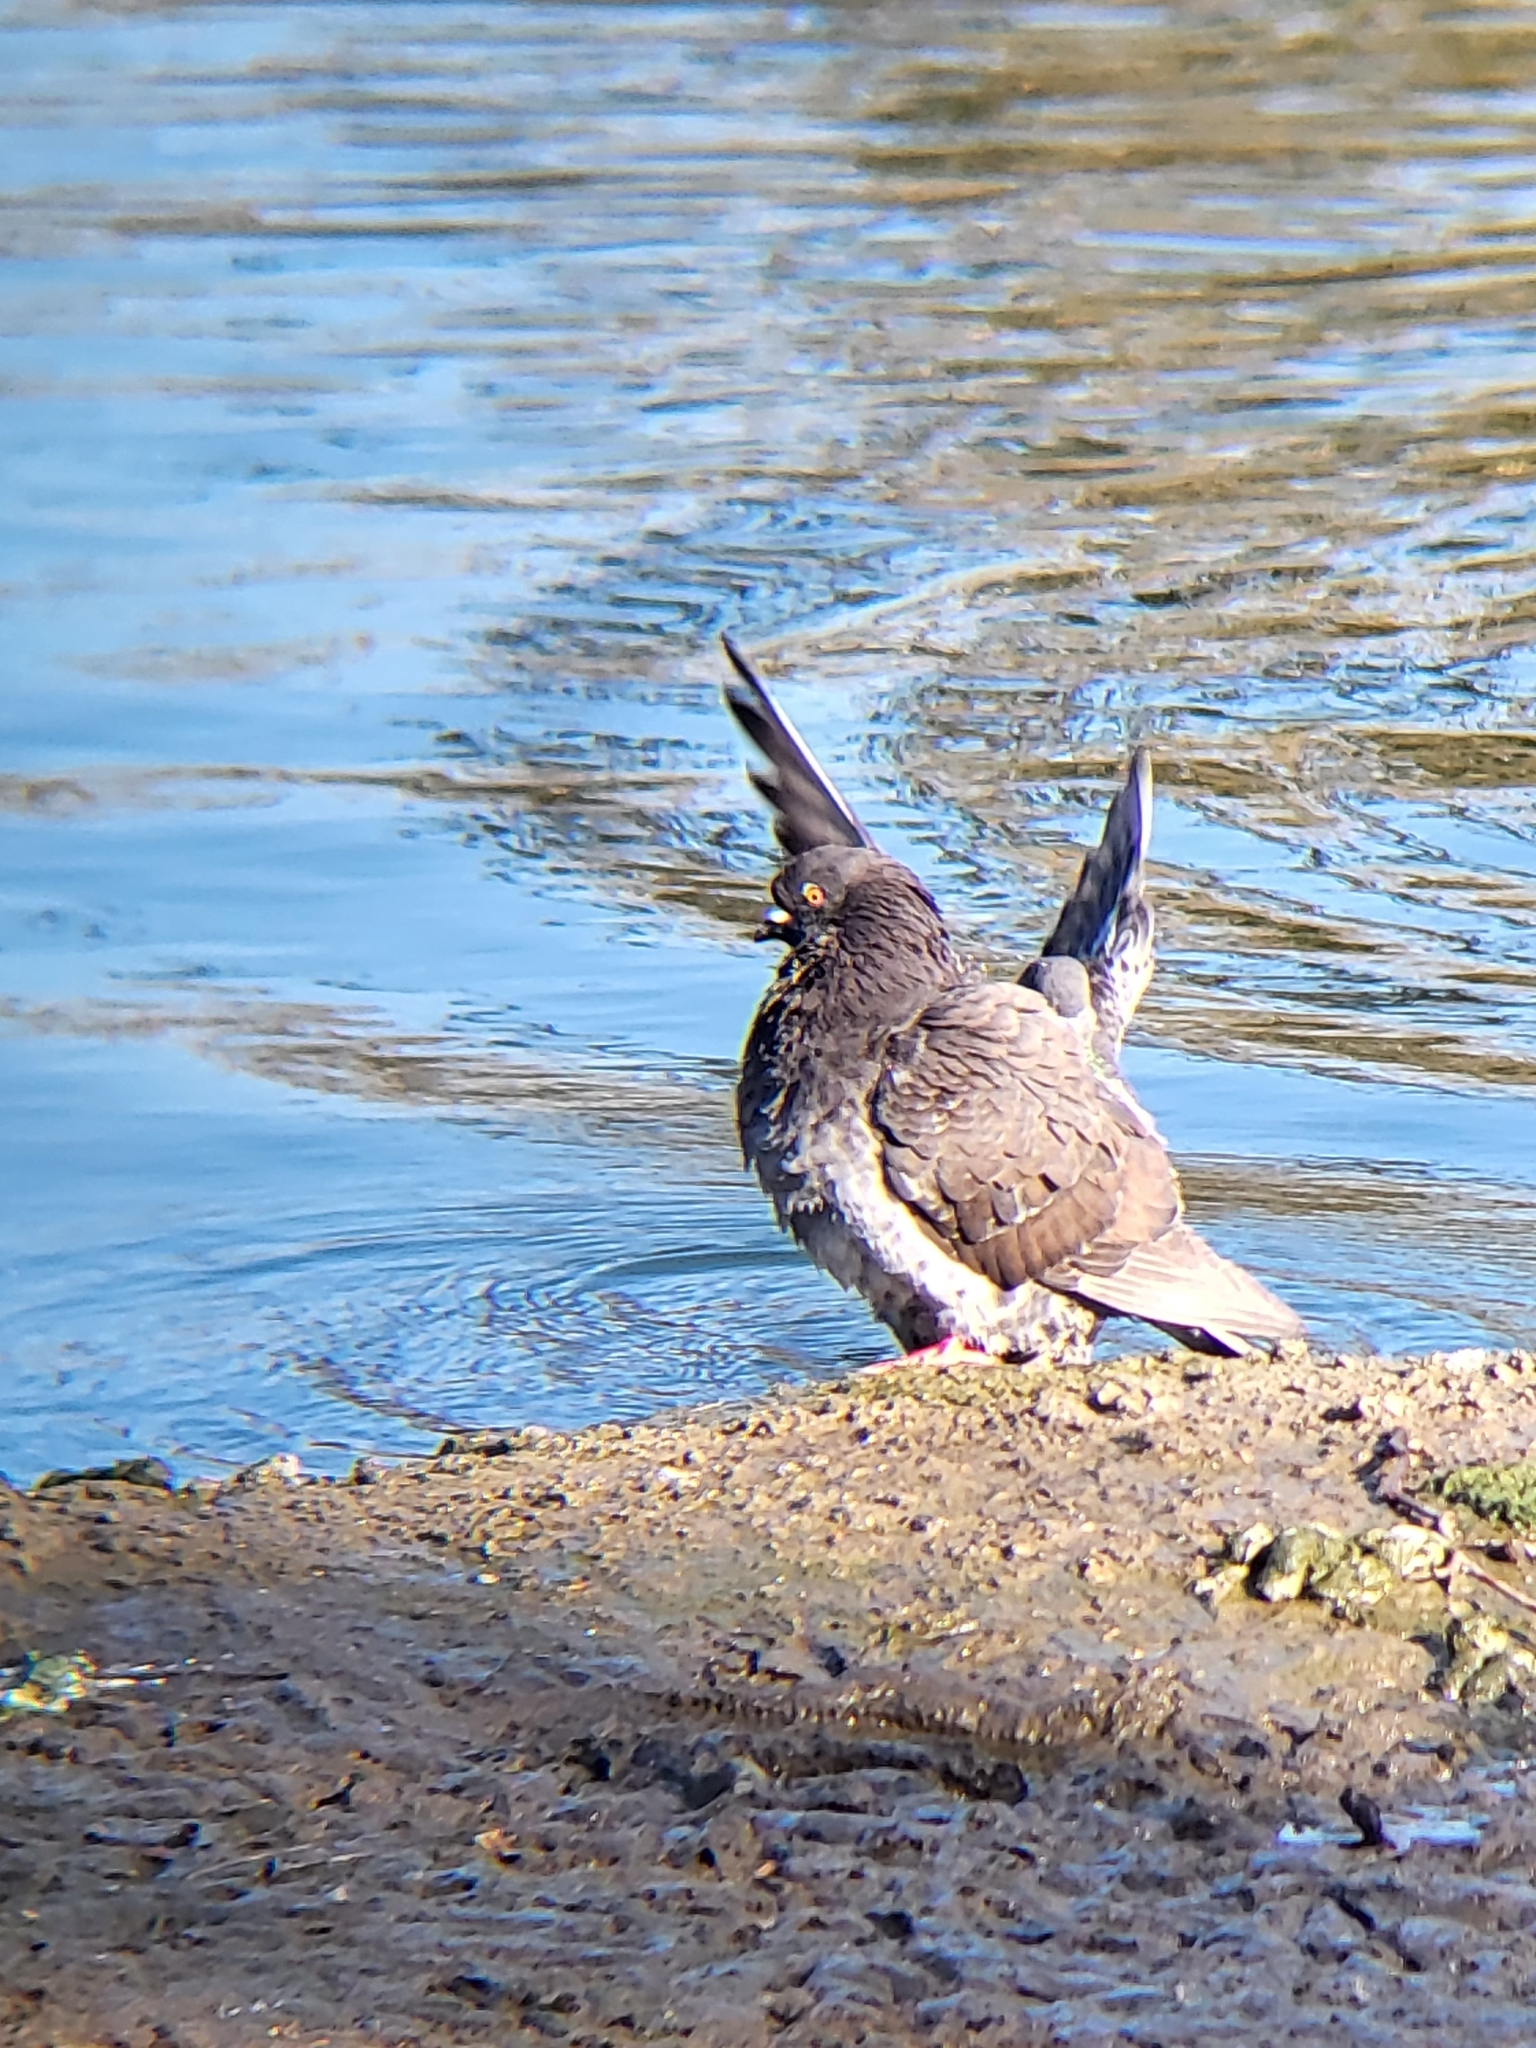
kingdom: Animalia
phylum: Chordata
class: Aves
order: Columbiformes
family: Columbidae
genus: Columba
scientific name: Columba livia
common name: Rock pigeon
